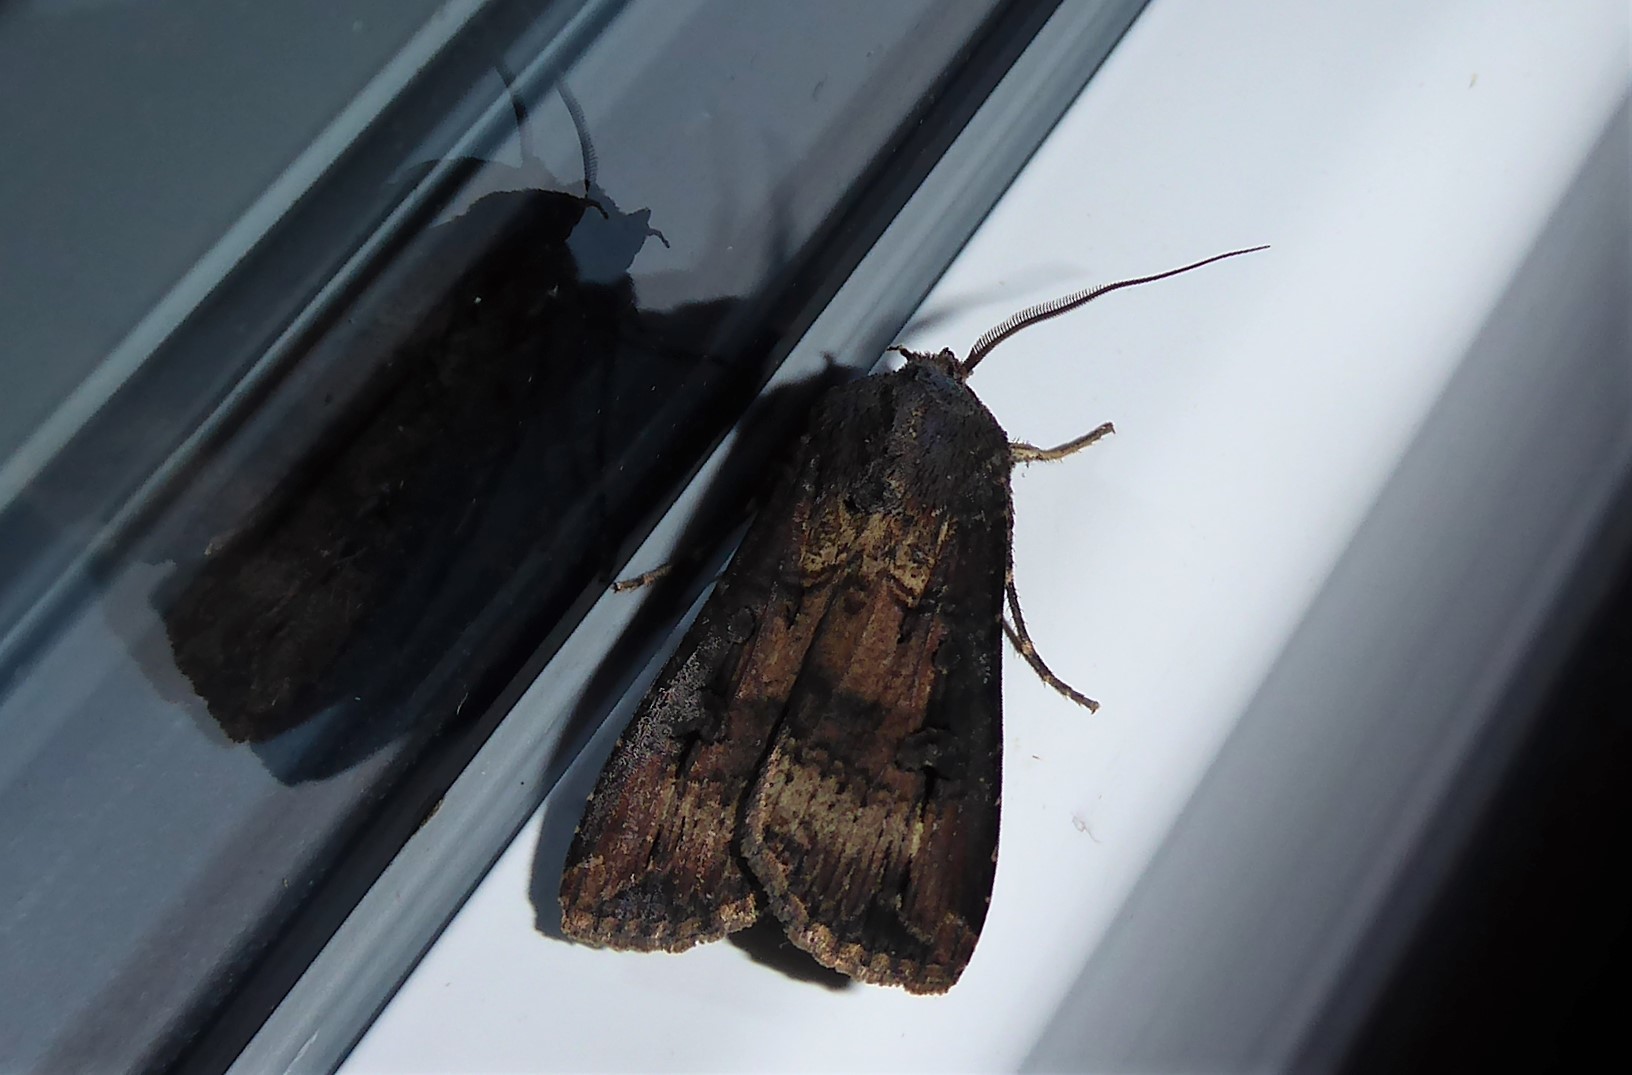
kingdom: Animalia
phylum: Arthropoda
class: Insecta
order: Lepidoptera
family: Noctuidae
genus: Agrotis
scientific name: Agrotis ipsilon
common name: Dark sword-grass
